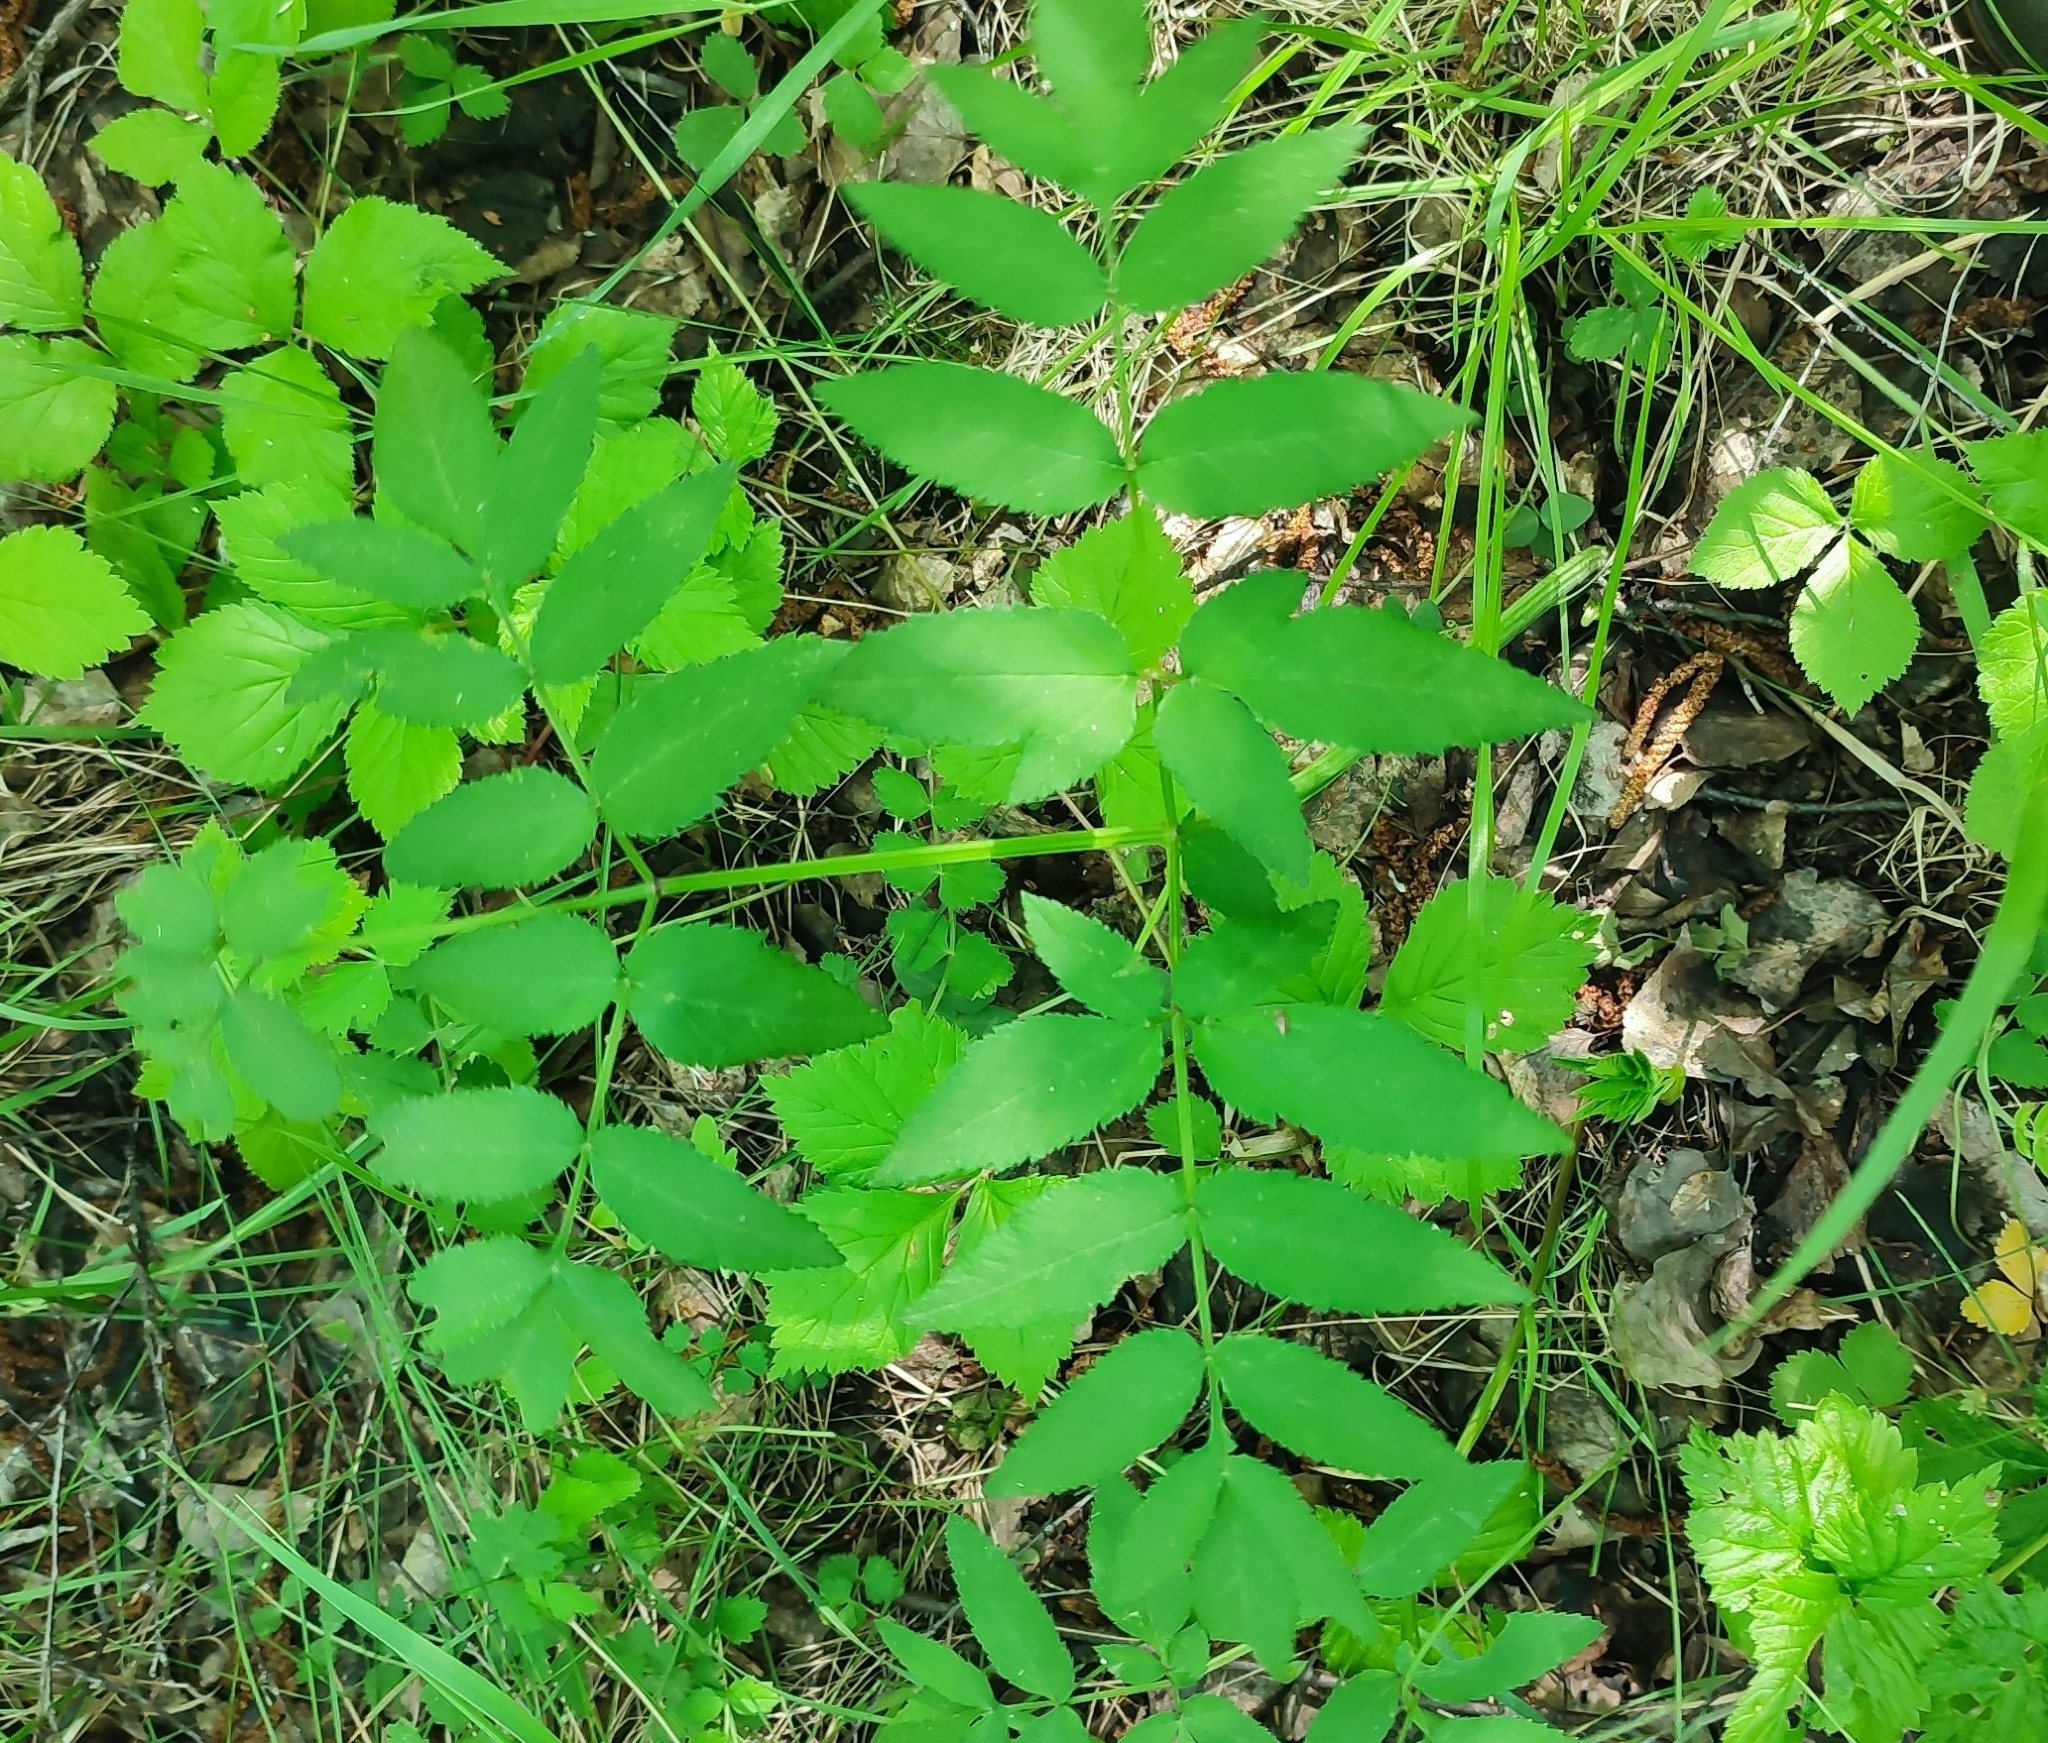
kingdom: Plantae
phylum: Tracheophyta
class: Magnoliopsida
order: Apiales
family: Apiaceae
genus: Angelica
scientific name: Angelica sylvestris
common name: Wild angelica
